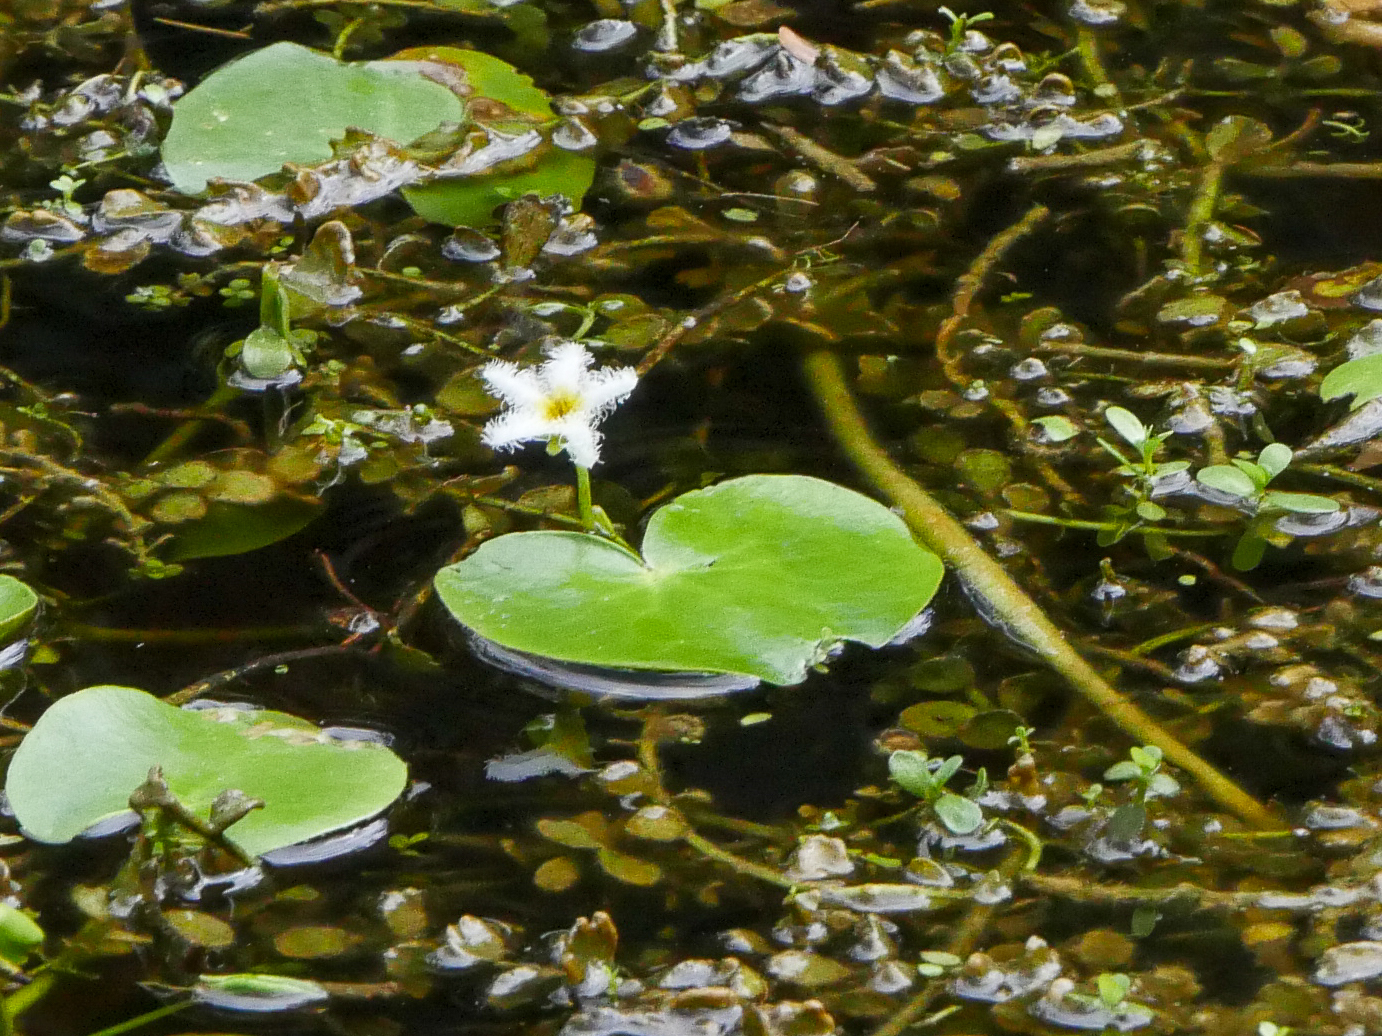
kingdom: Plantae
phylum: Tracheophyta
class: Magnoliopsida
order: Asterales
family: Menyanthaceae
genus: Nymphoides
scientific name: Nymphoides humboldtiana
